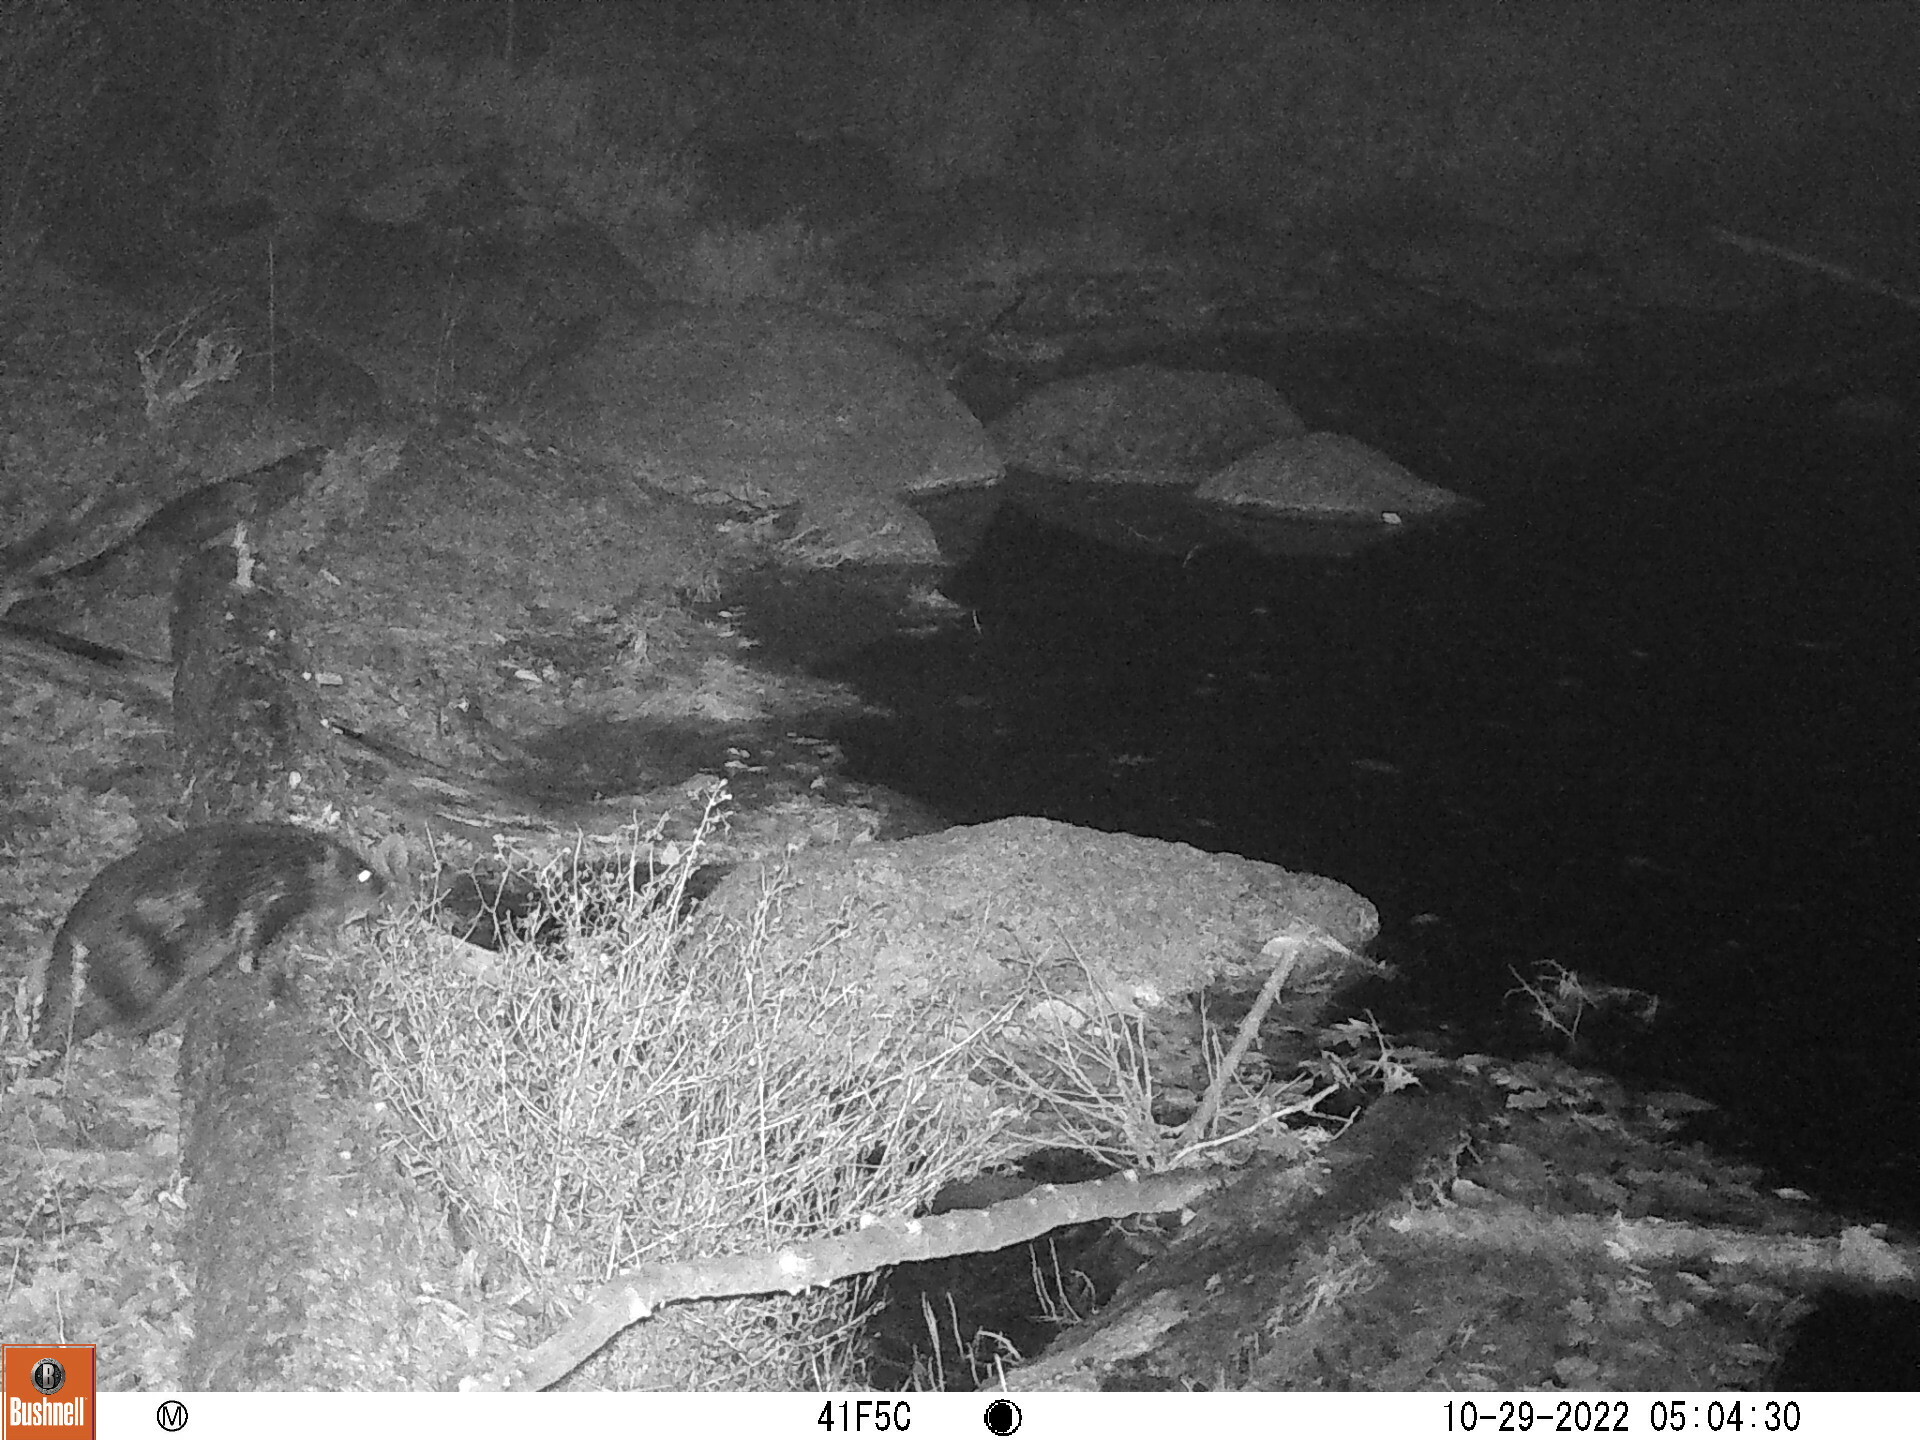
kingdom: Animalia
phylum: Chordata
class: Mammalia
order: Rodentia
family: Castoridae
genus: Castor
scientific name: Castor canadensis
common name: American beaver
